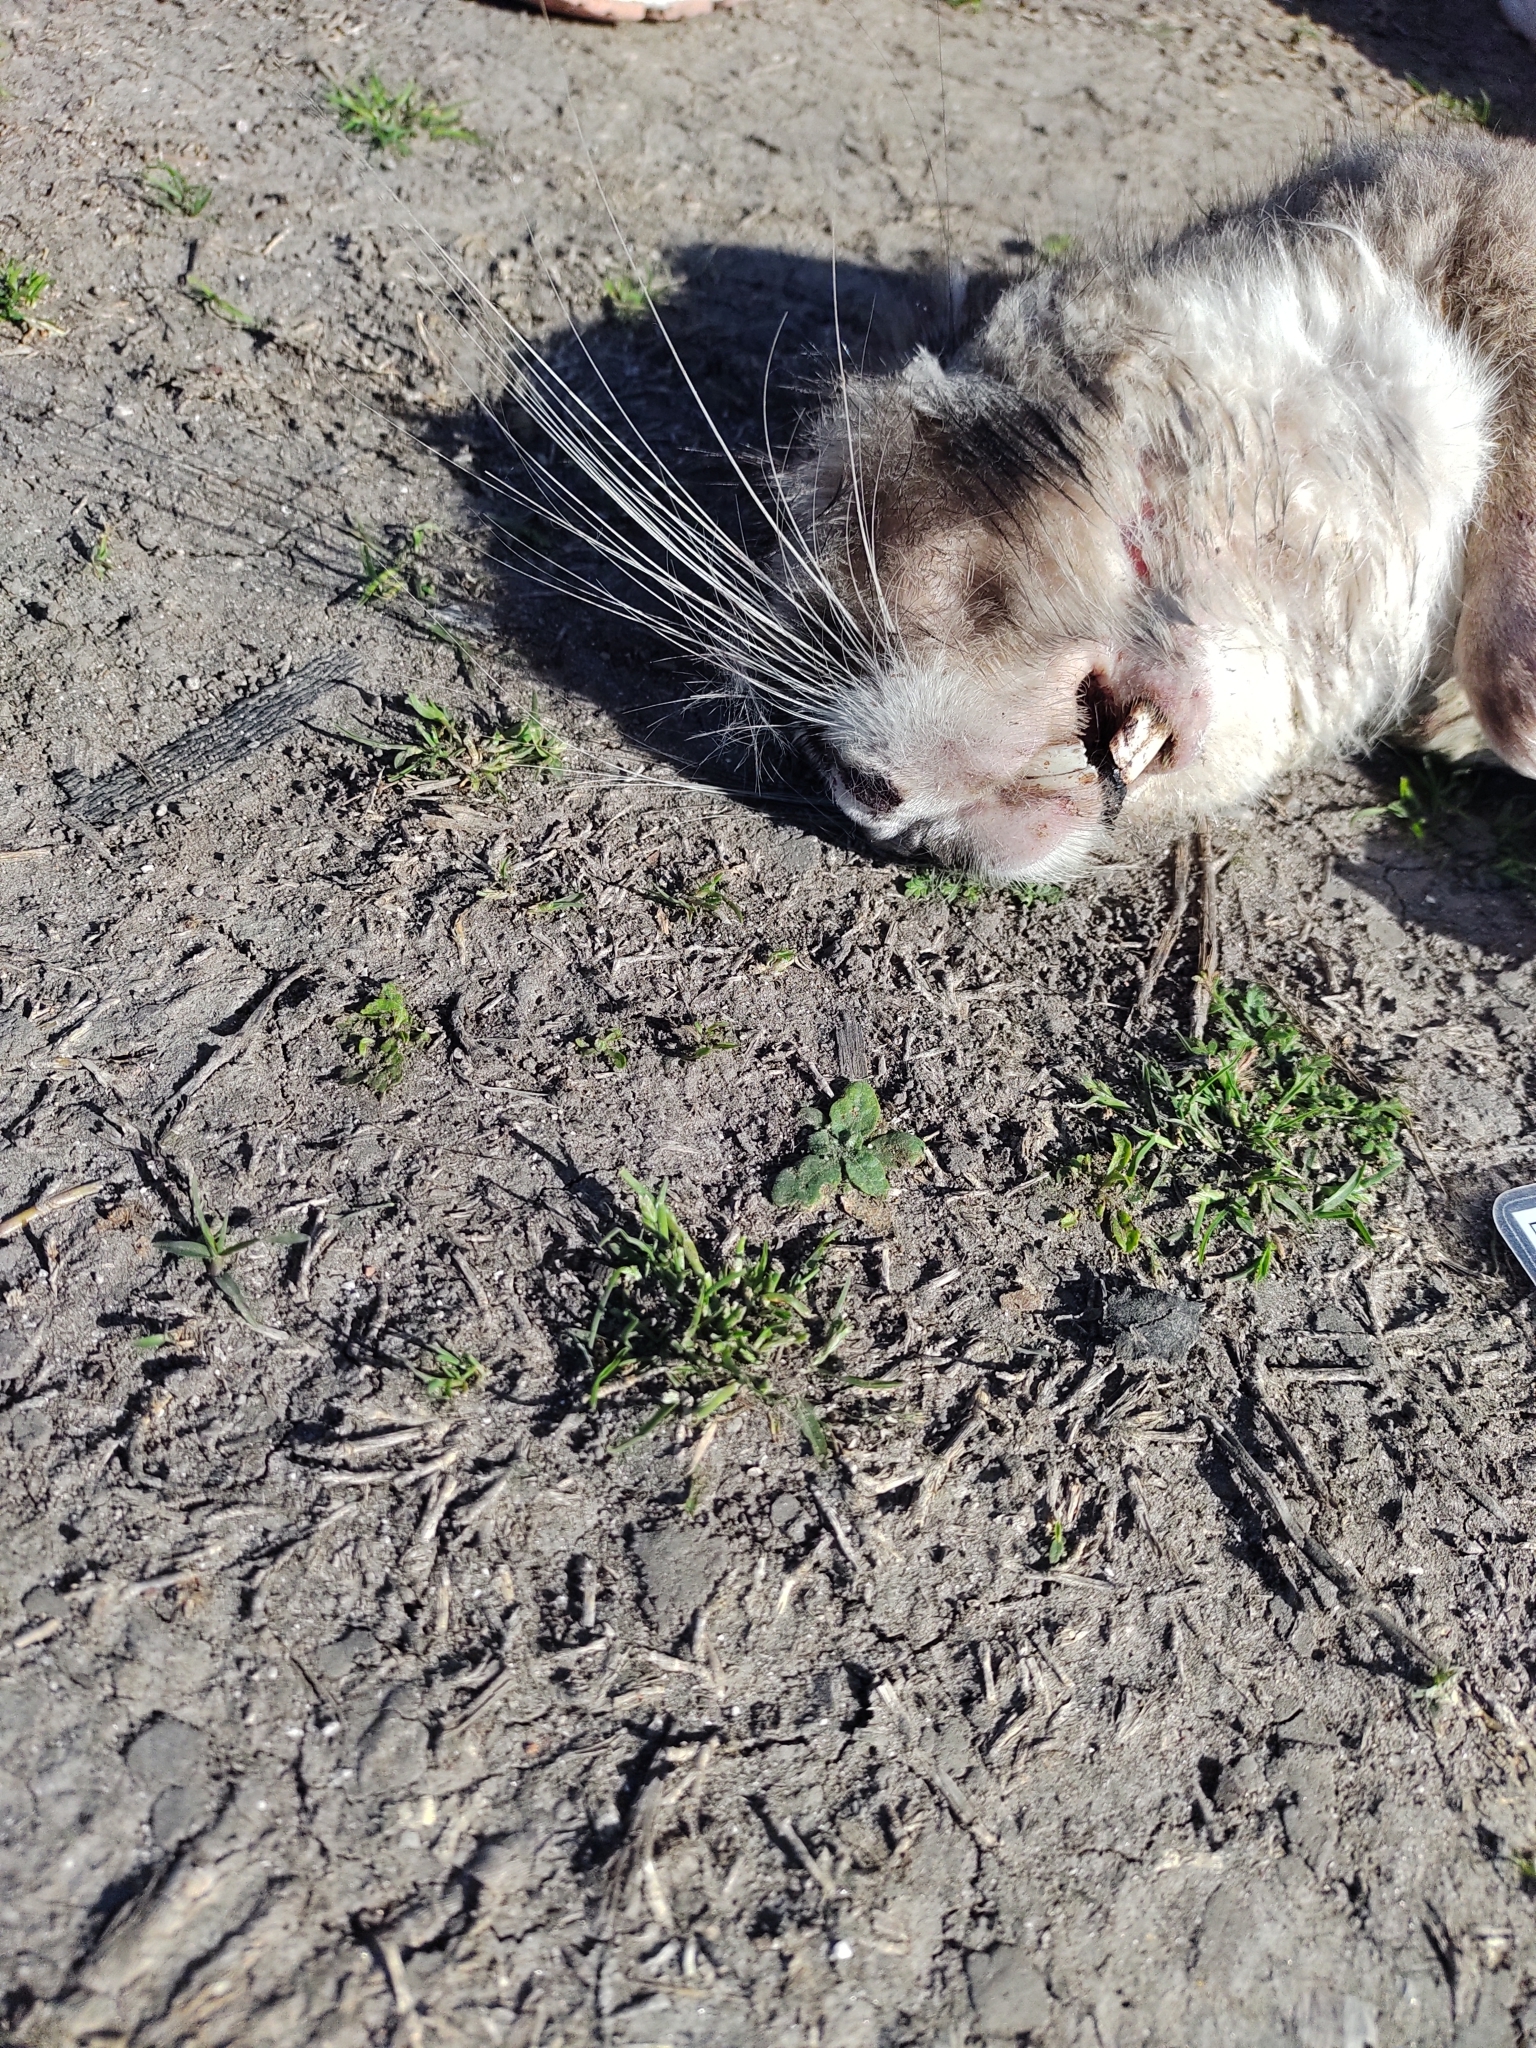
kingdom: Animalia
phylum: Chordata
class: Mammalia
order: Rodentia
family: Chinchillidae
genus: Lagostomus
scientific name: Lagostomus maximus
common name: Plains viscacha
